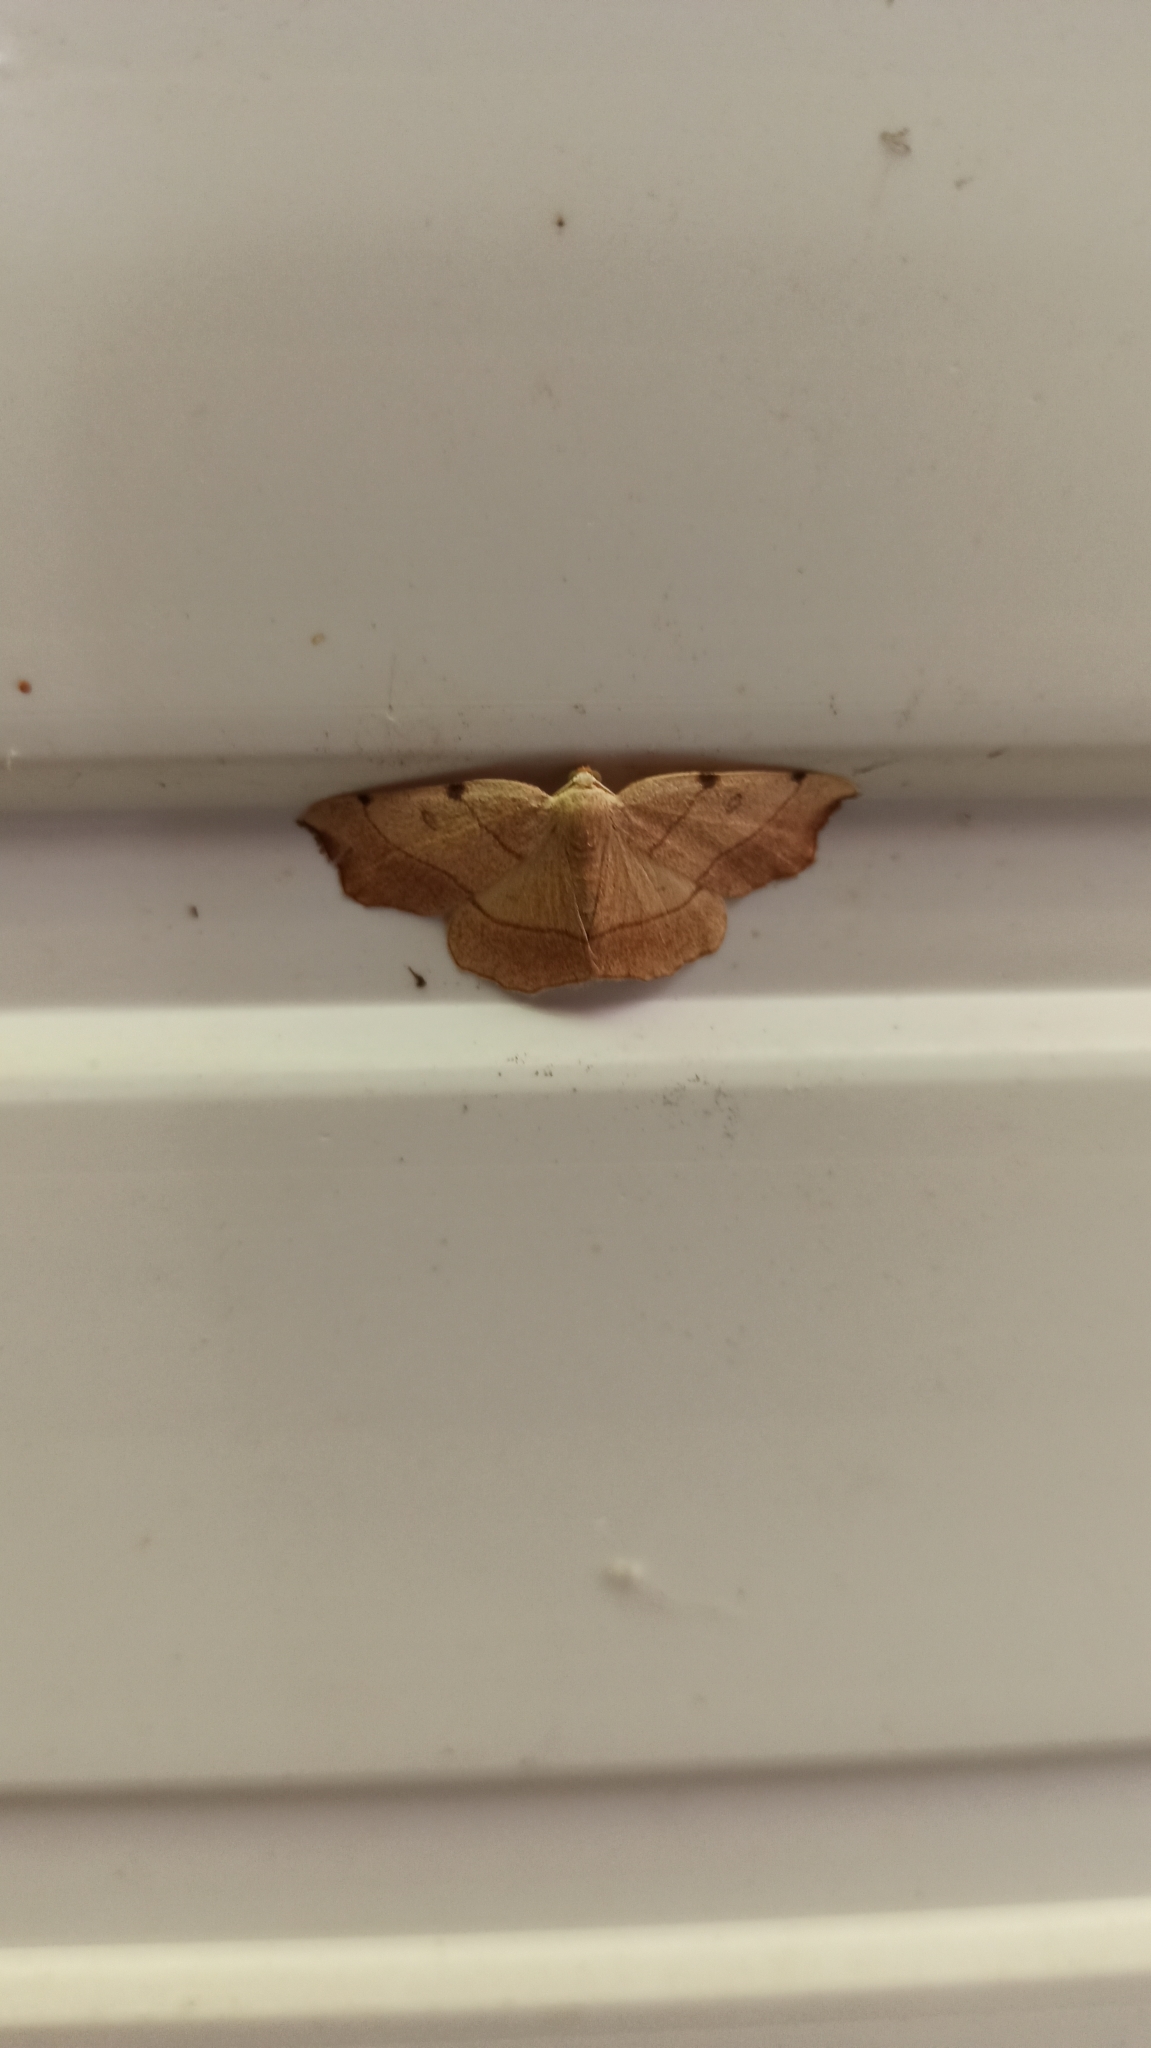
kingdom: Animalia
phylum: Arthropoda
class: Insecta
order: Lepidoptera
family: Geometridae
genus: Eilicrinia
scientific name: Eilicrinia trinotata
